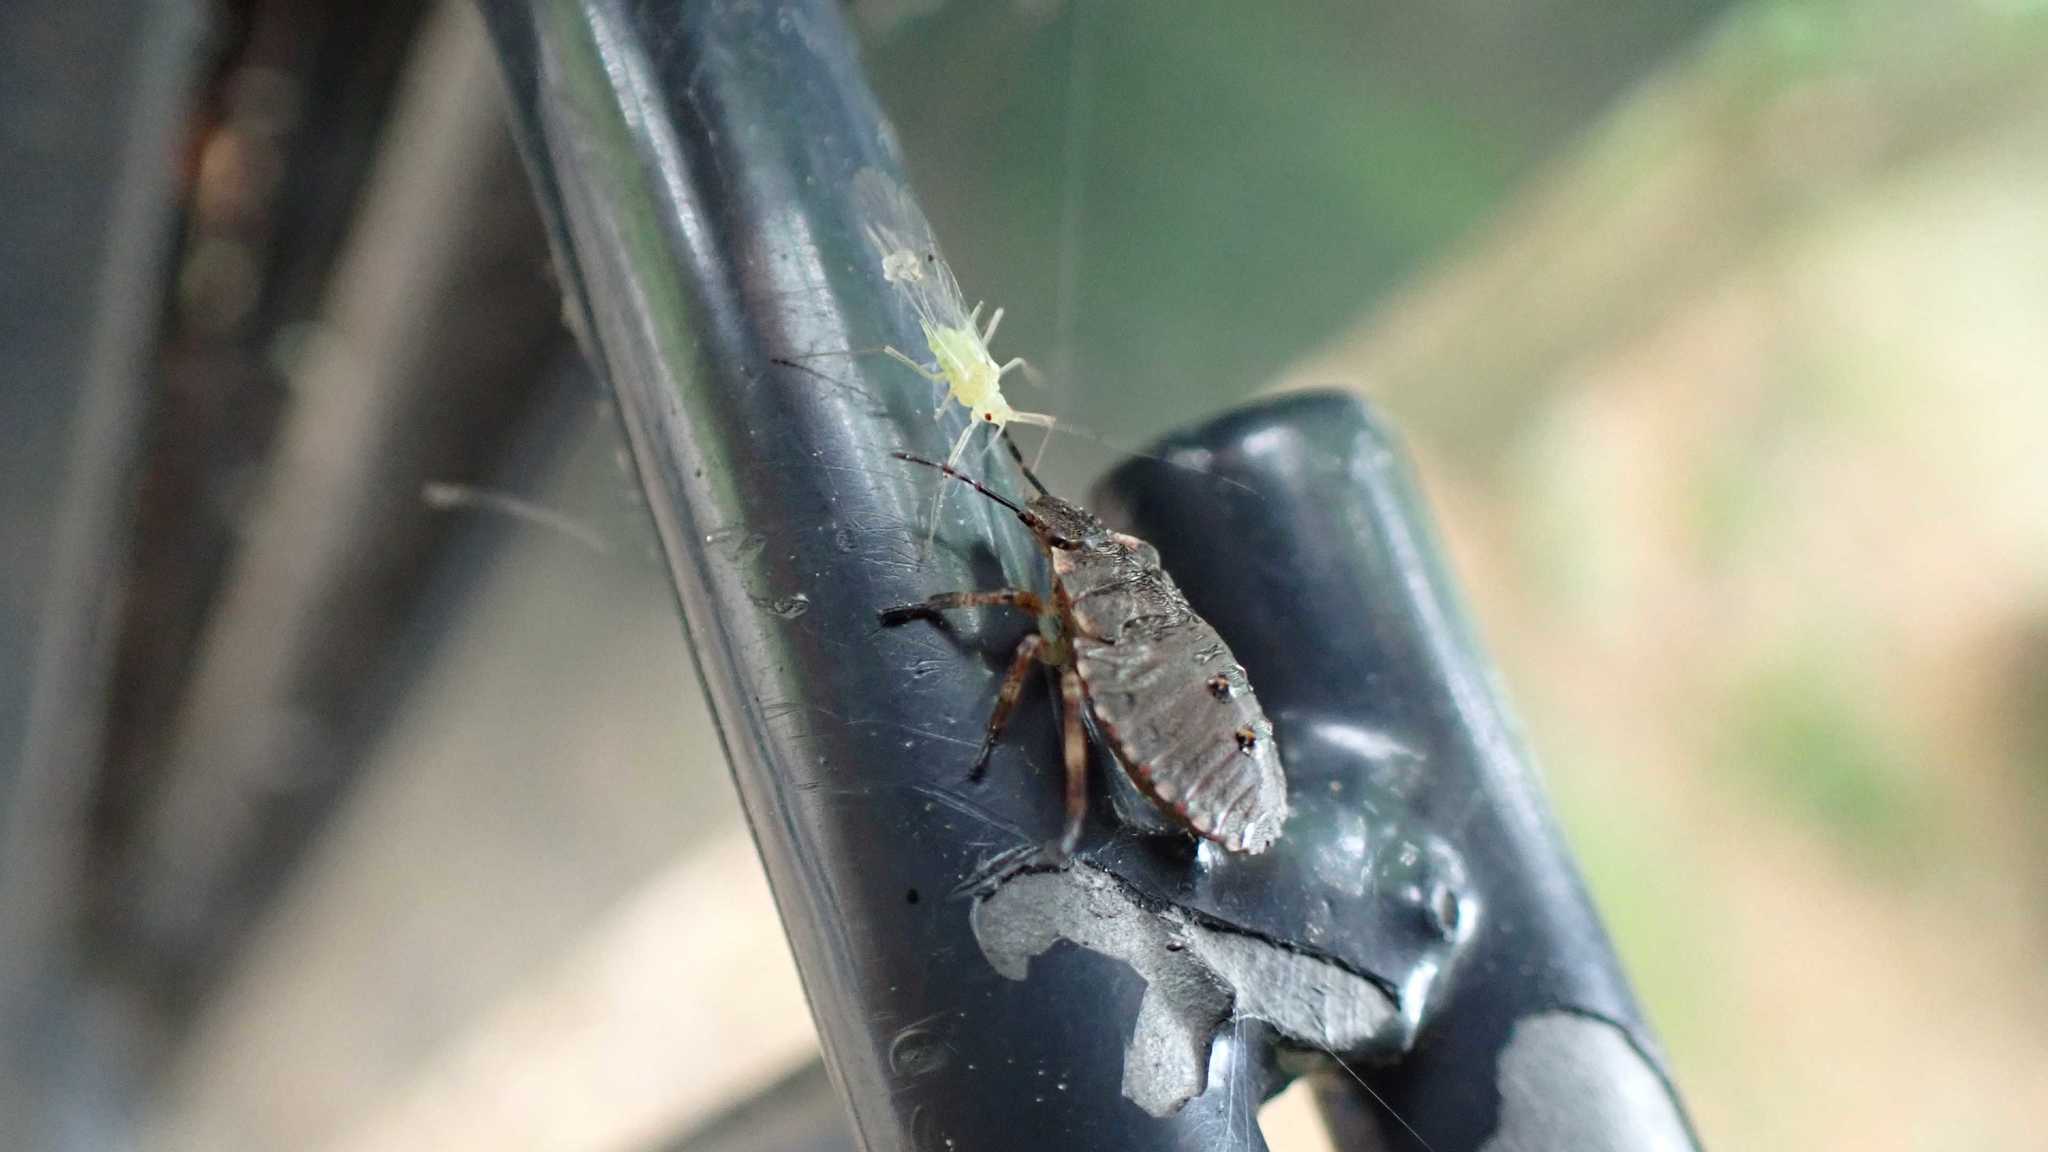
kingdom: Animalia
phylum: Arthropoda
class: Insecta
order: Hemiptera
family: Pentatomidae
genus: Pentatoma
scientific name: Pentatoma rufipes
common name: Forest bug
